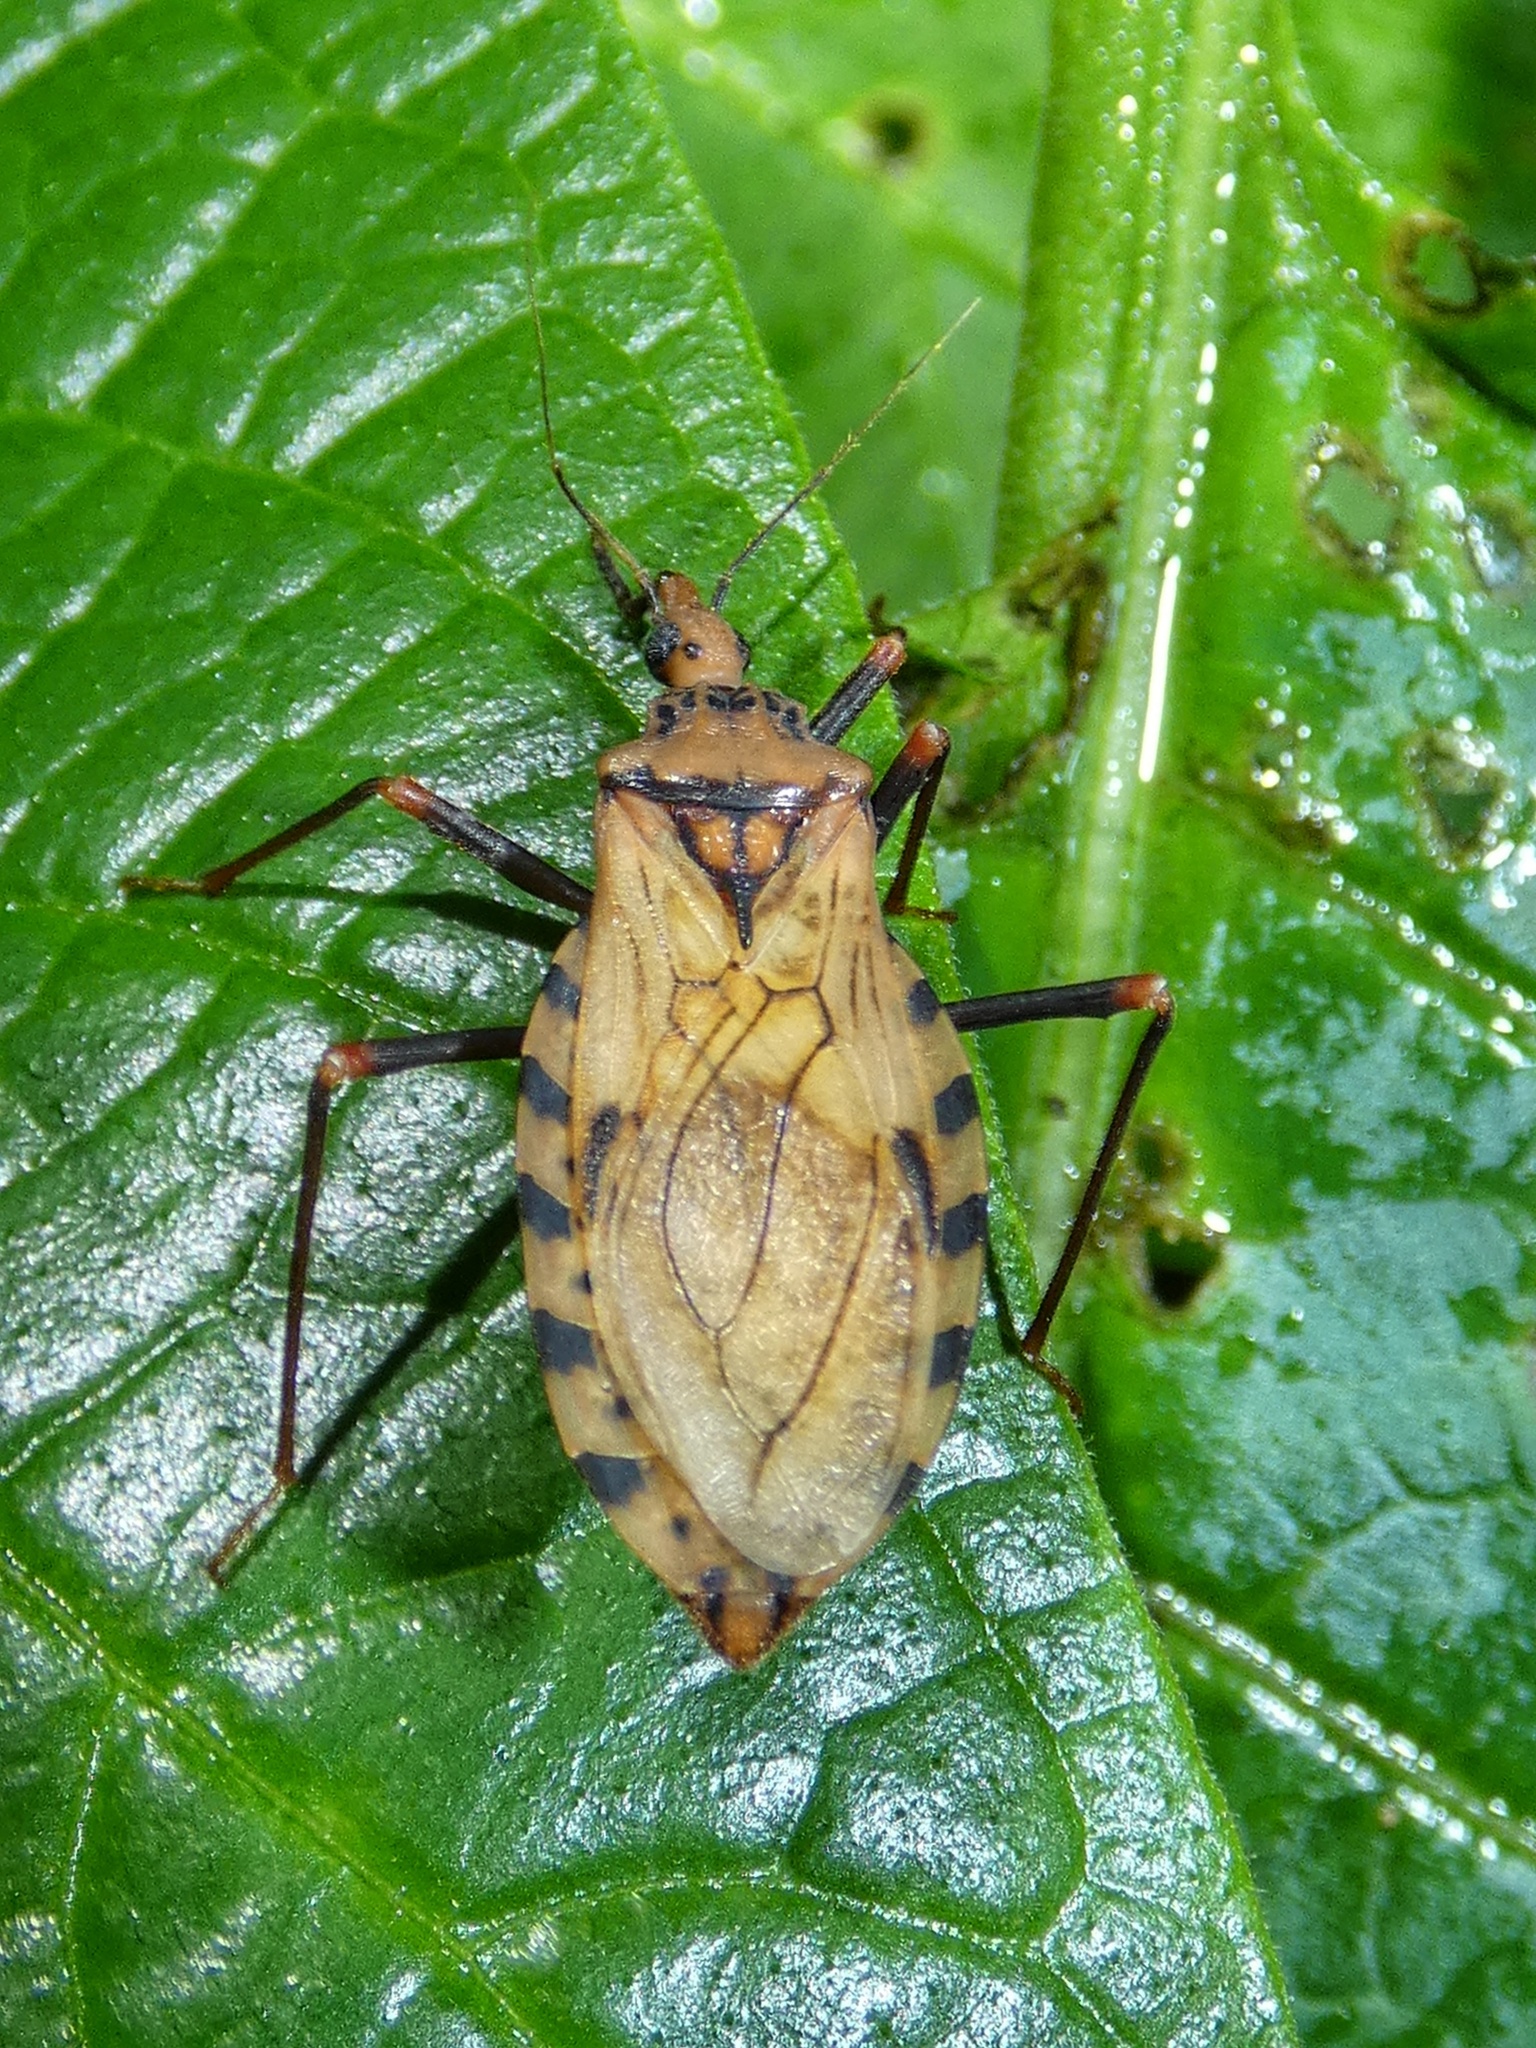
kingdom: Animalia
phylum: Arthropoda
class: Insecta
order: Hemiptera
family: Reduviidae
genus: Panstrongylus
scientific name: Panstrongylus geniculatus
